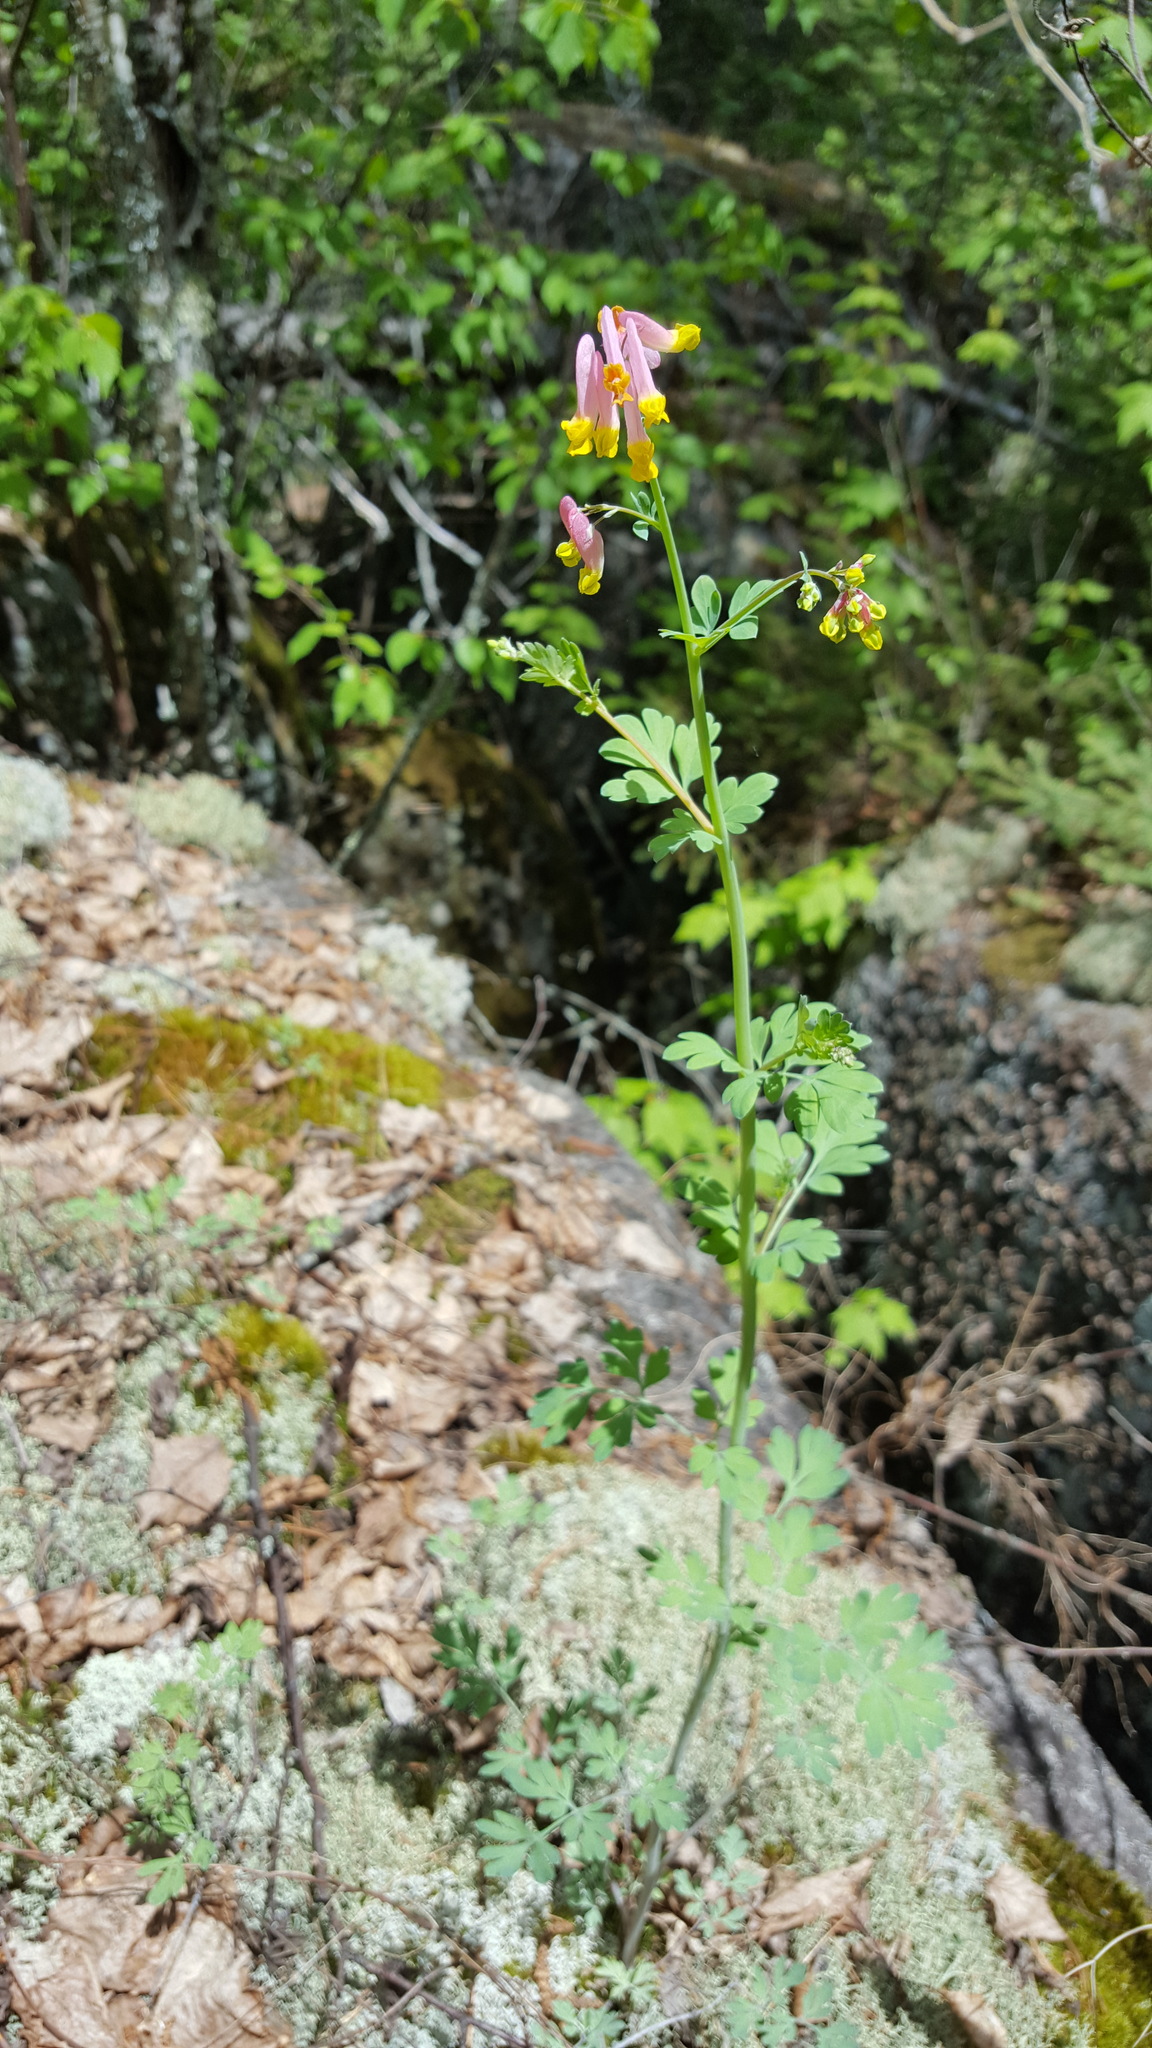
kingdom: Plantae
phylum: Tracheophyta
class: Magnoliopsida
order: Ranunculales
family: Papaveraceae
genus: Capnoides
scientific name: Capnoides sempervirens
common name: Rock harlequin
